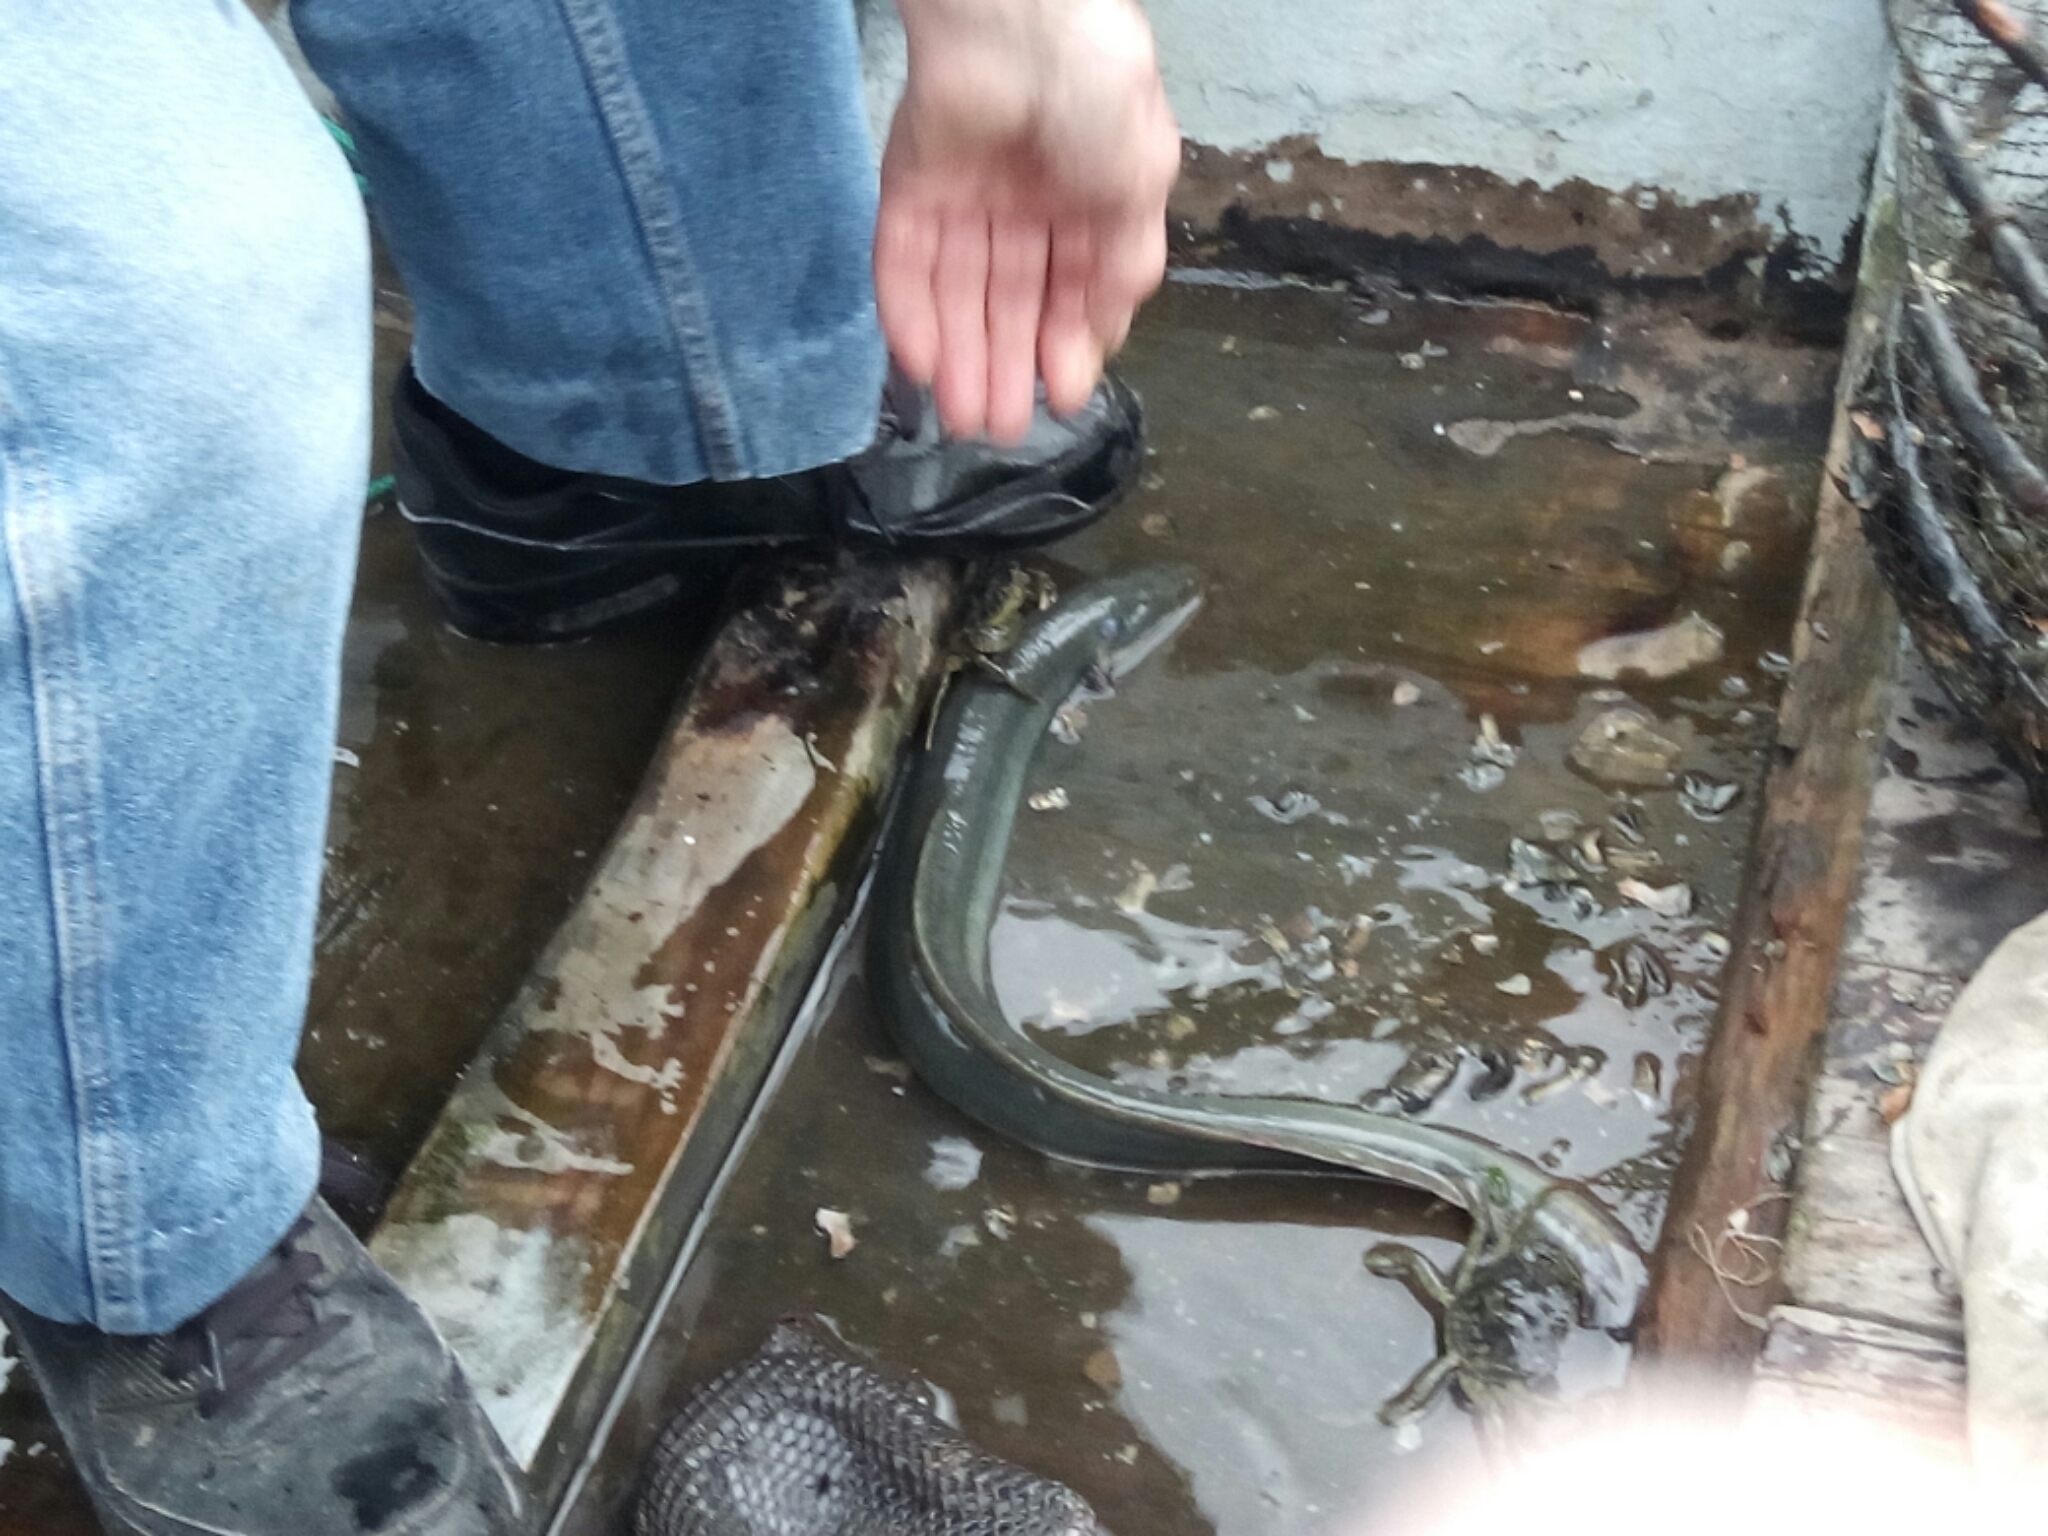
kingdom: Animalia
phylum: Chordata
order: Anguilliformes
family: Anguillidae
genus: Anguilla
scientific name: Anguilla anguilla
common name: European eel
